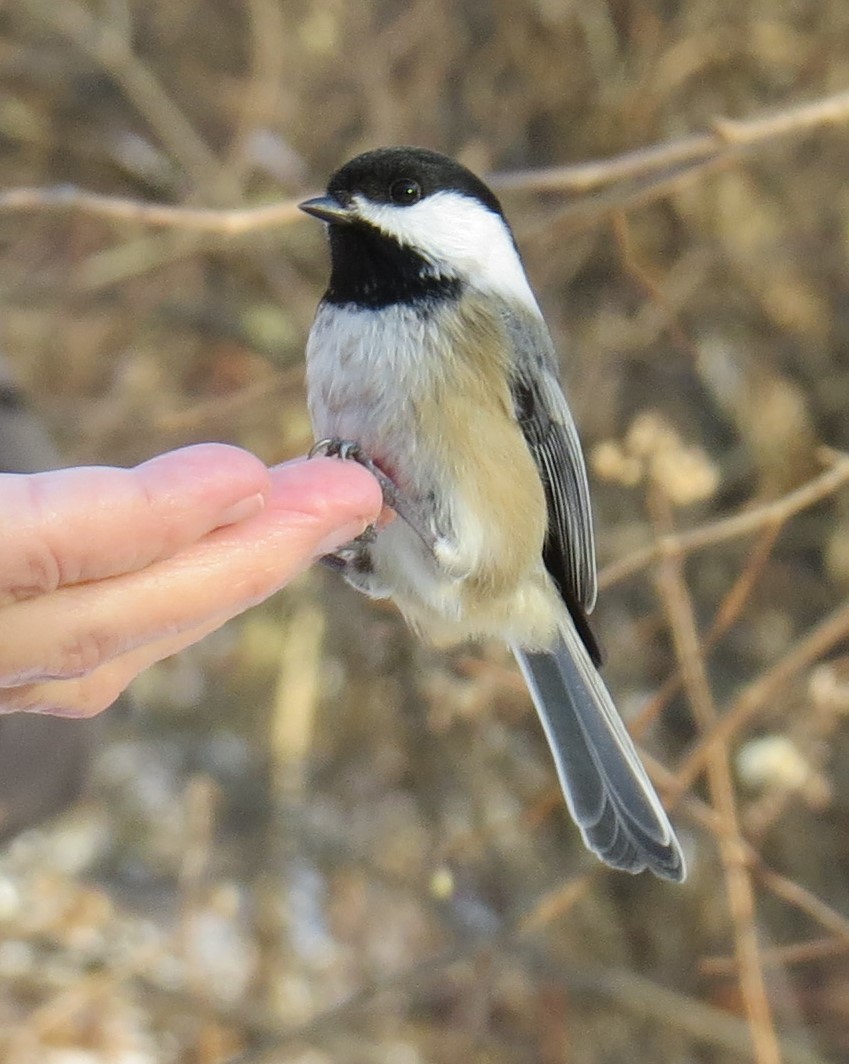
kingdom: Animalia
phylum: Chordata
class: Aves
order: Passeriformes
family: Paridae
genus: Poecile
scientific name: Poecile atricapillus
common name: Black-capped chickadee
